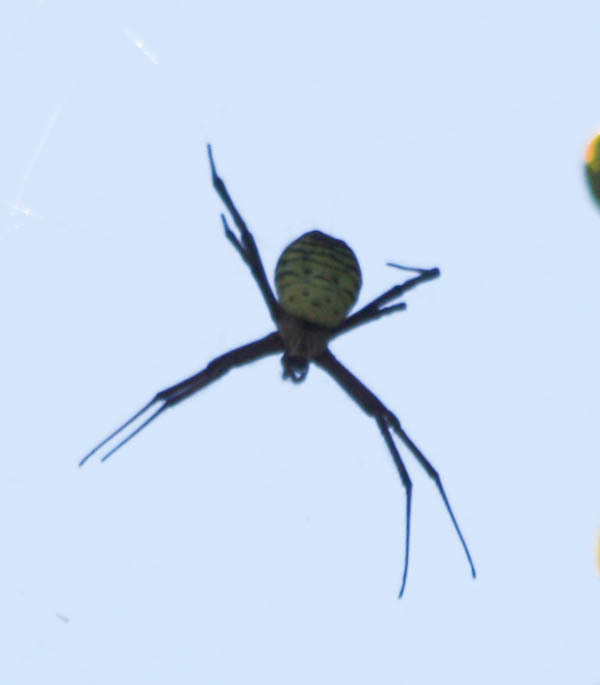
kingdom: Animalia
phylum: Arthropoda
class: Arachnida
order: Araneae
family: Araneidae
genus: Argiope
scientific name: Argiope trifasciata
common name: Banded garden spider
